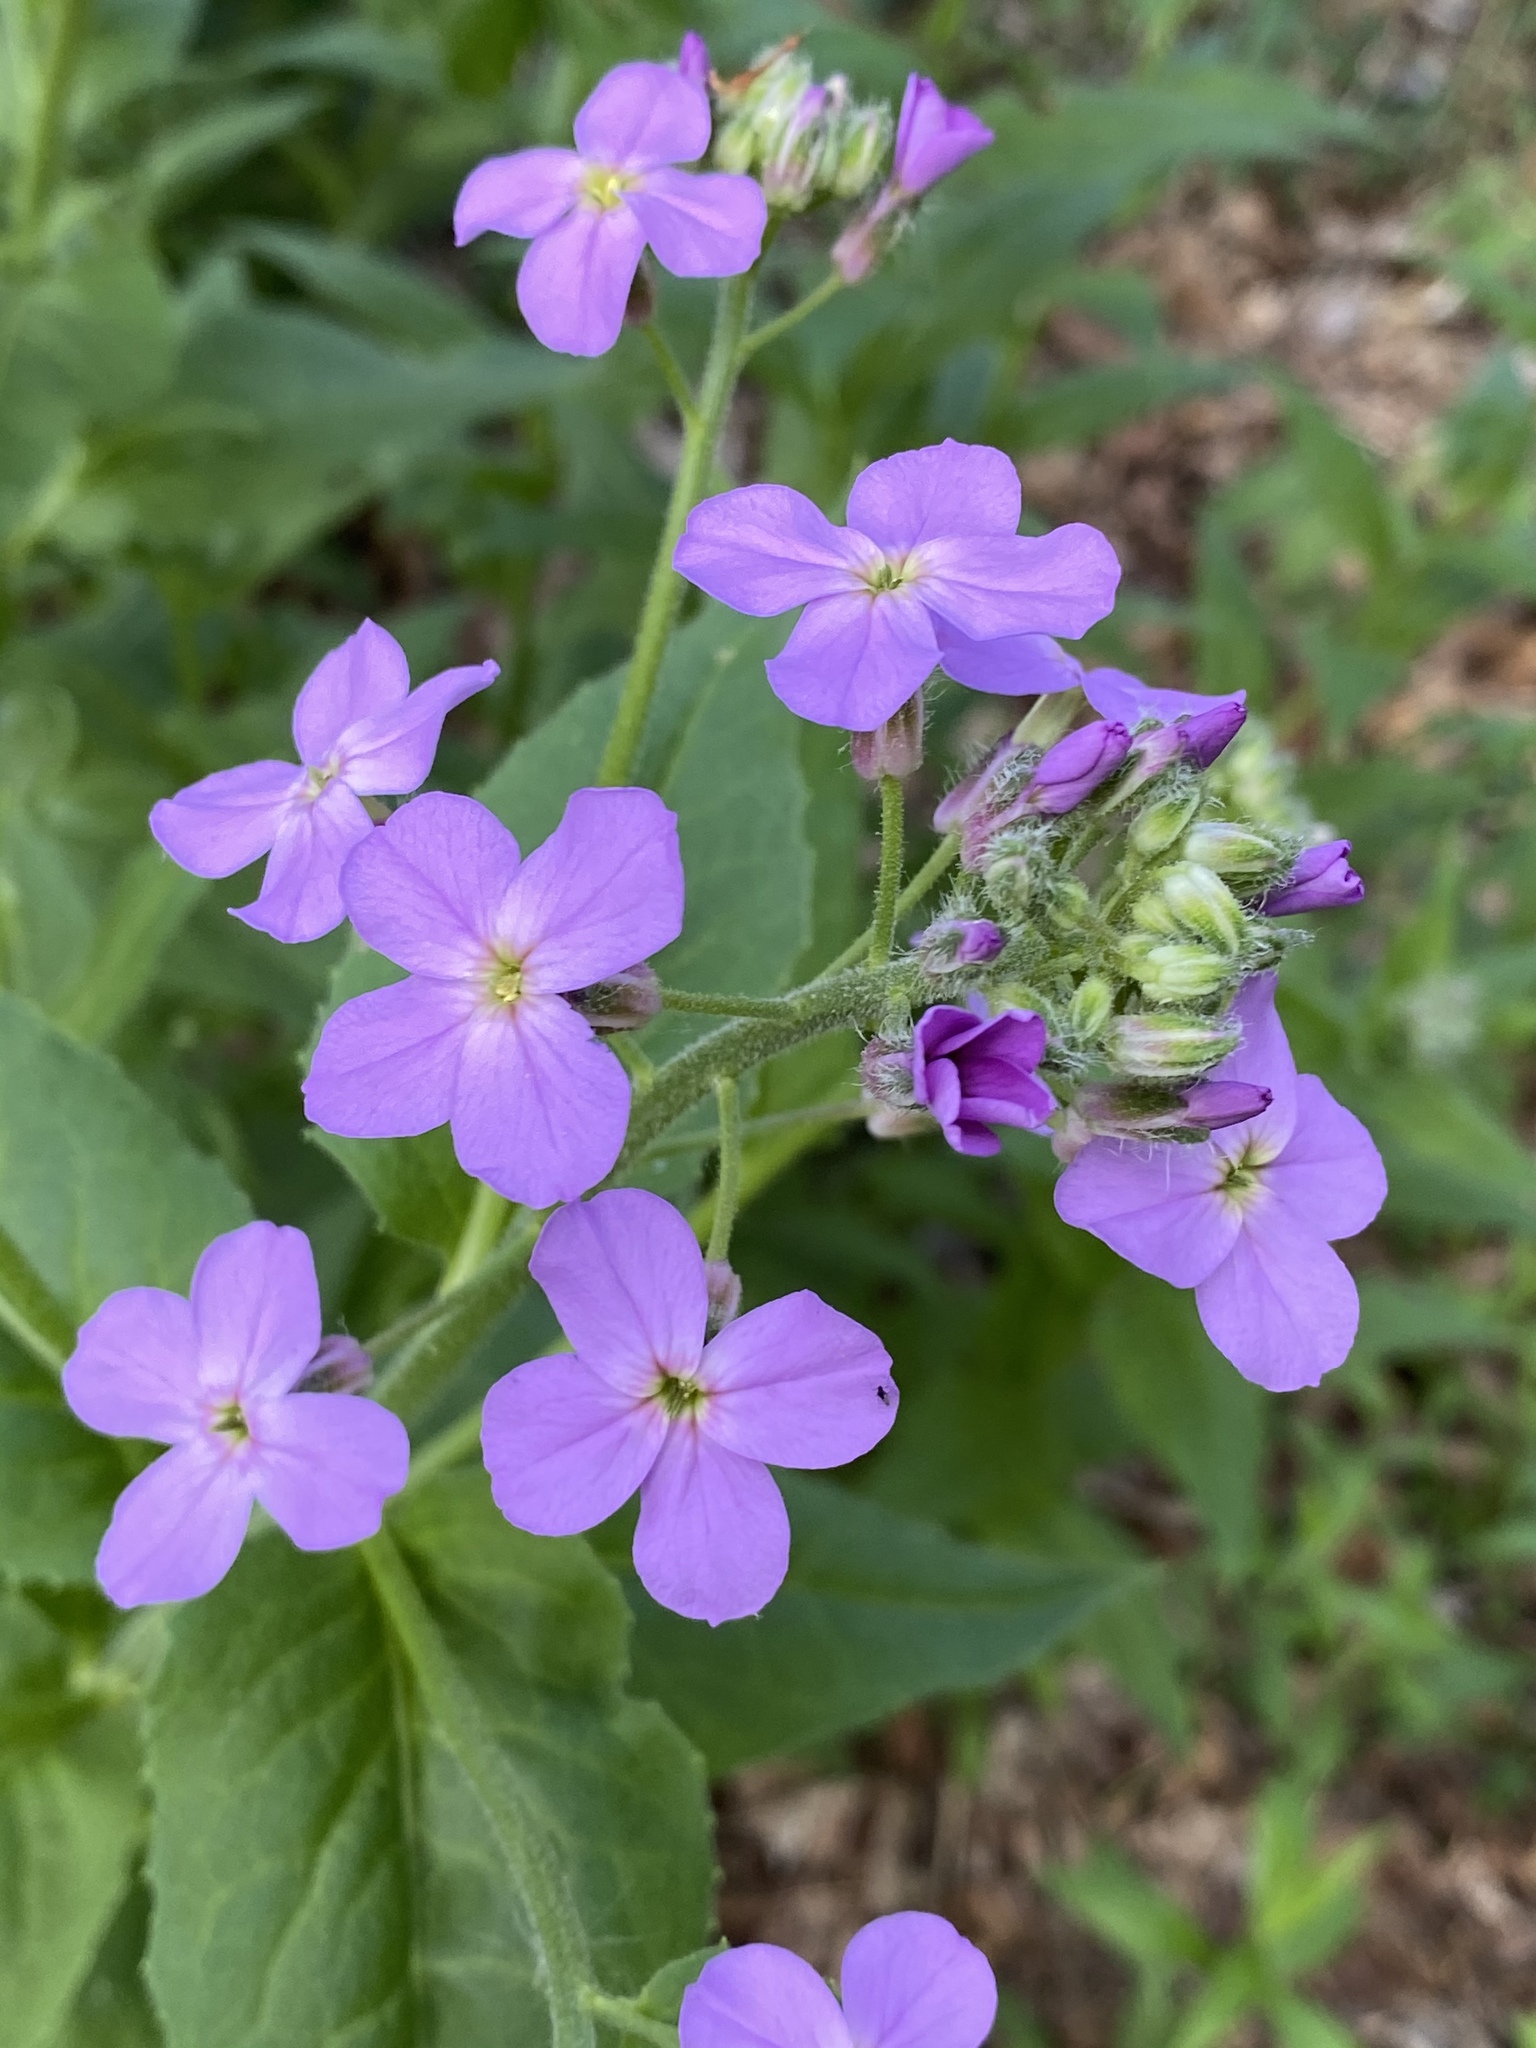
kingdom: Plantae
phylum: Tracheophyta
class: Magnoliopsida
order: Brassicales
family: Brassicaceae
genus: Hesperis
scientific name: Hesperis matronalis
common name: Dame's-violet
